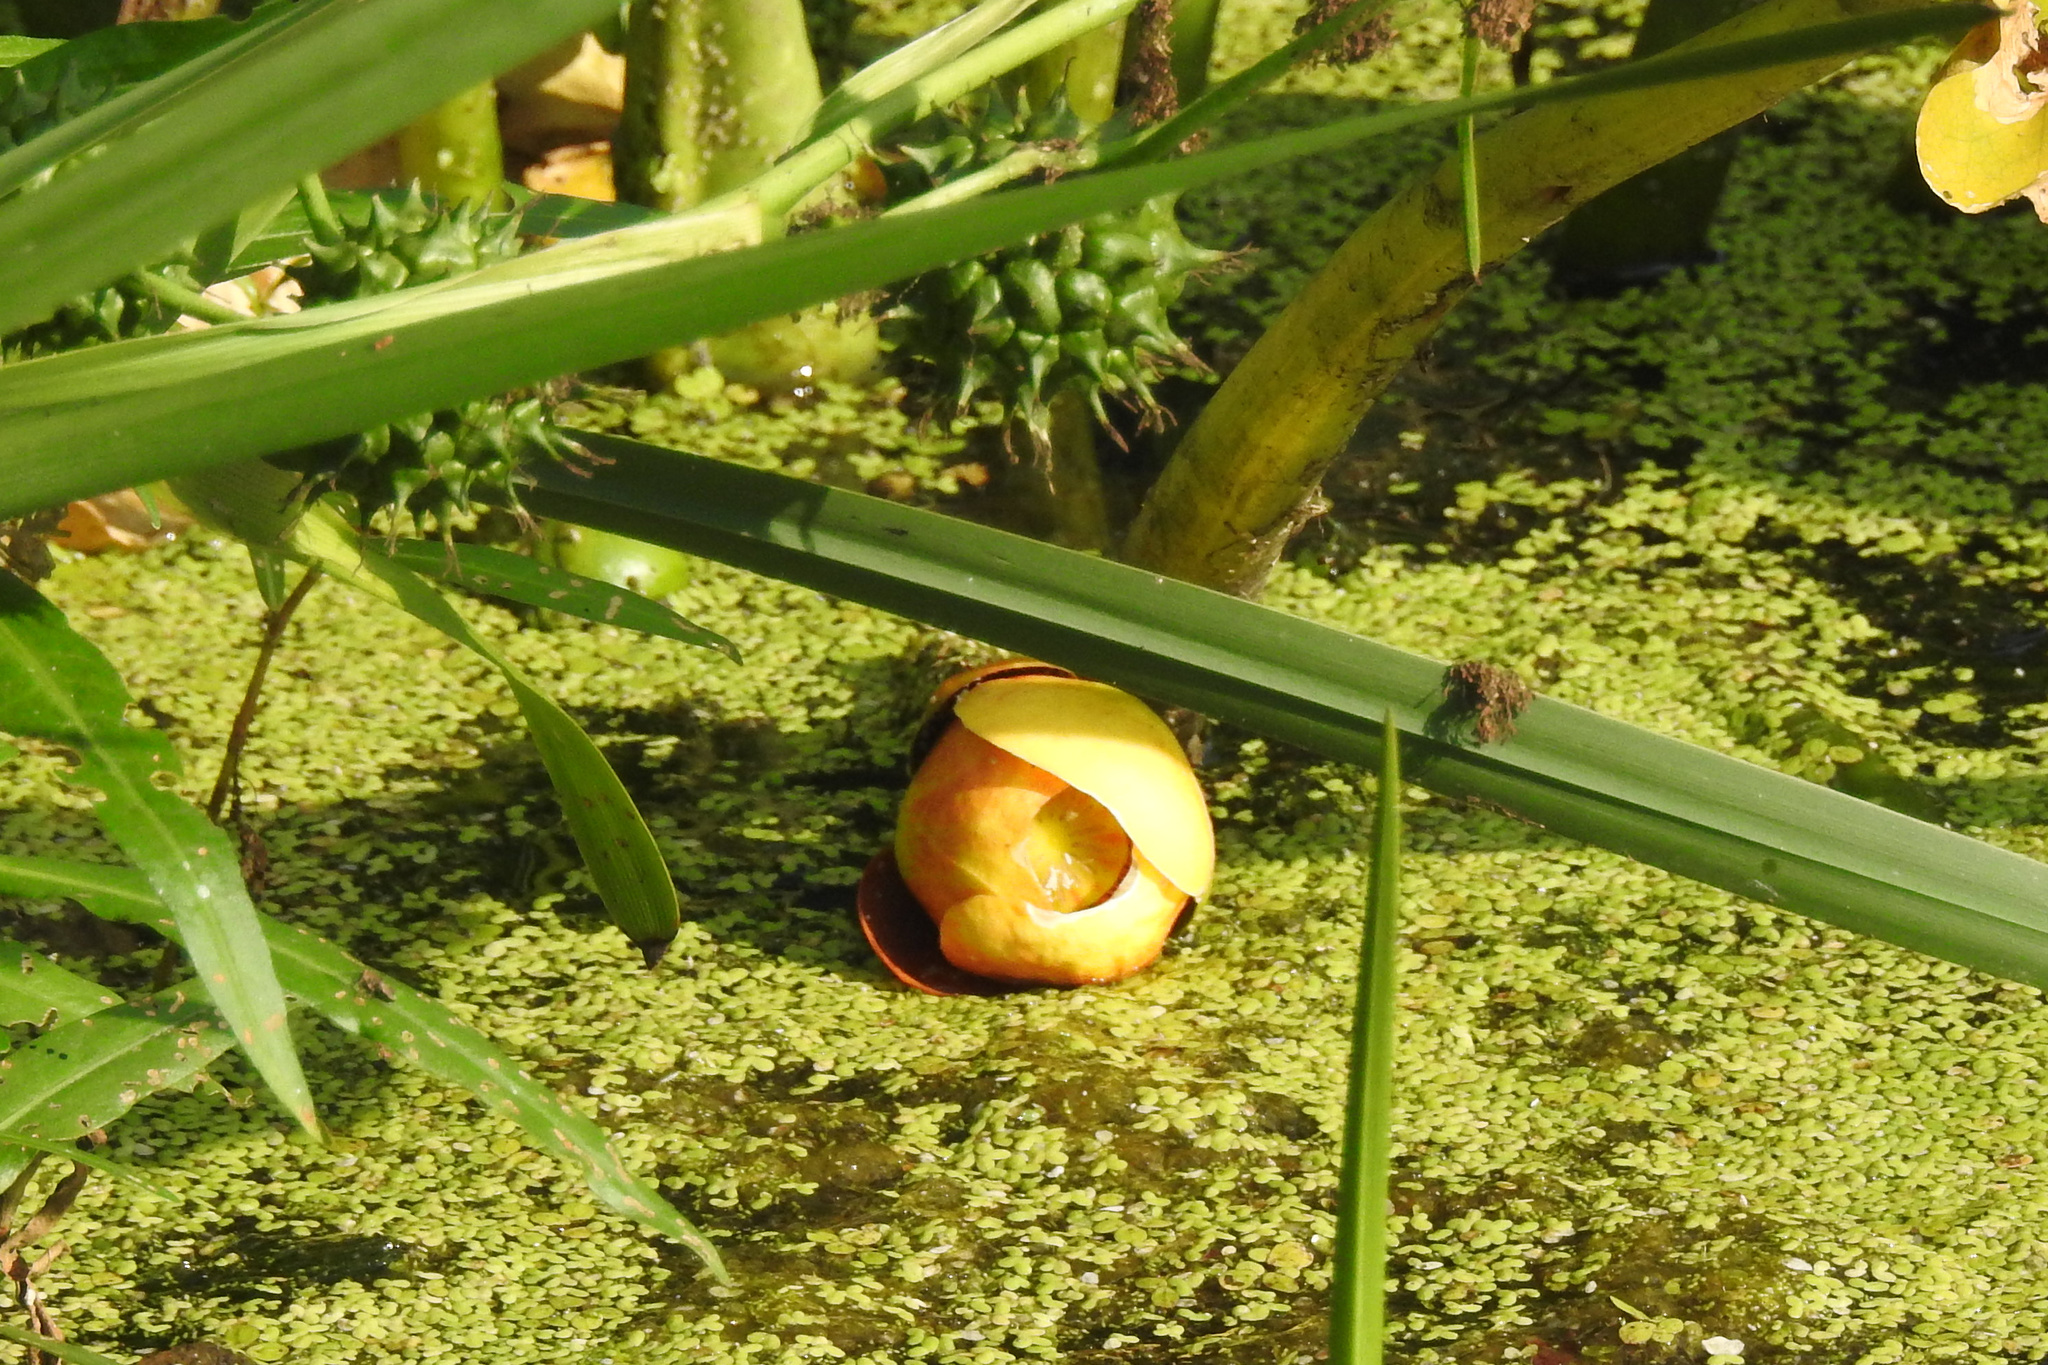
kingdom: Plantae
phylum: Tracheophyta
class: Magnoliopsida
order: Nymphaeales
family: Nymphaeaceae
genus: Nuphar
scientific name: Nuphar advena
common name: Spatter-dock
